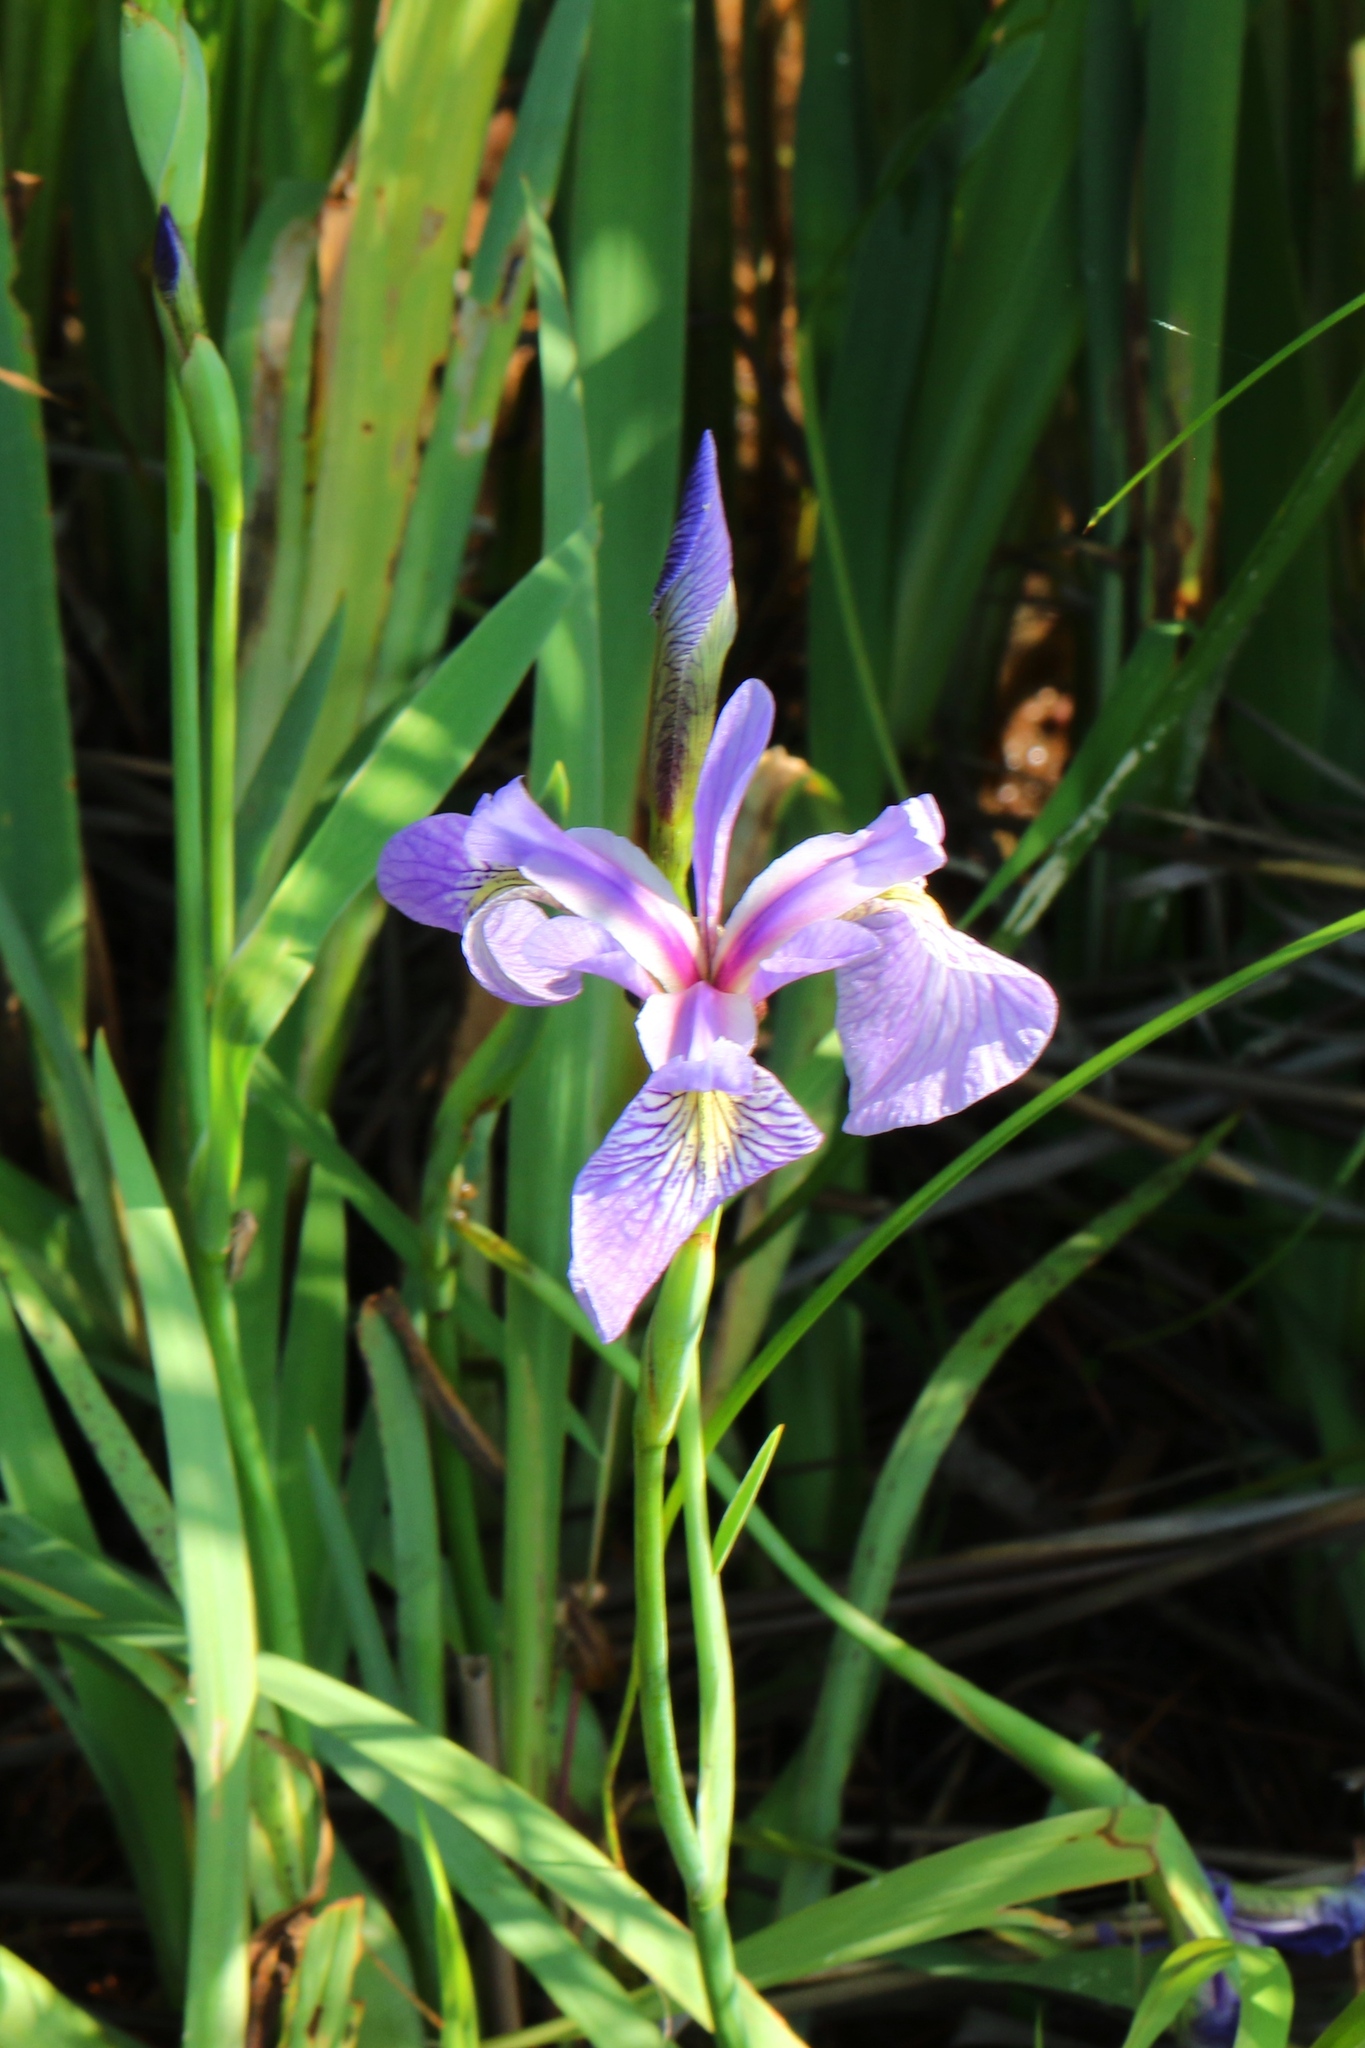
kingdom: Plantae
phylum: Tracheophyta
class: Liliopsida
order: Asparagales
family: Iridaceae
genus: Iris
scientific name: Iris versicolor
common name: Purple iris
